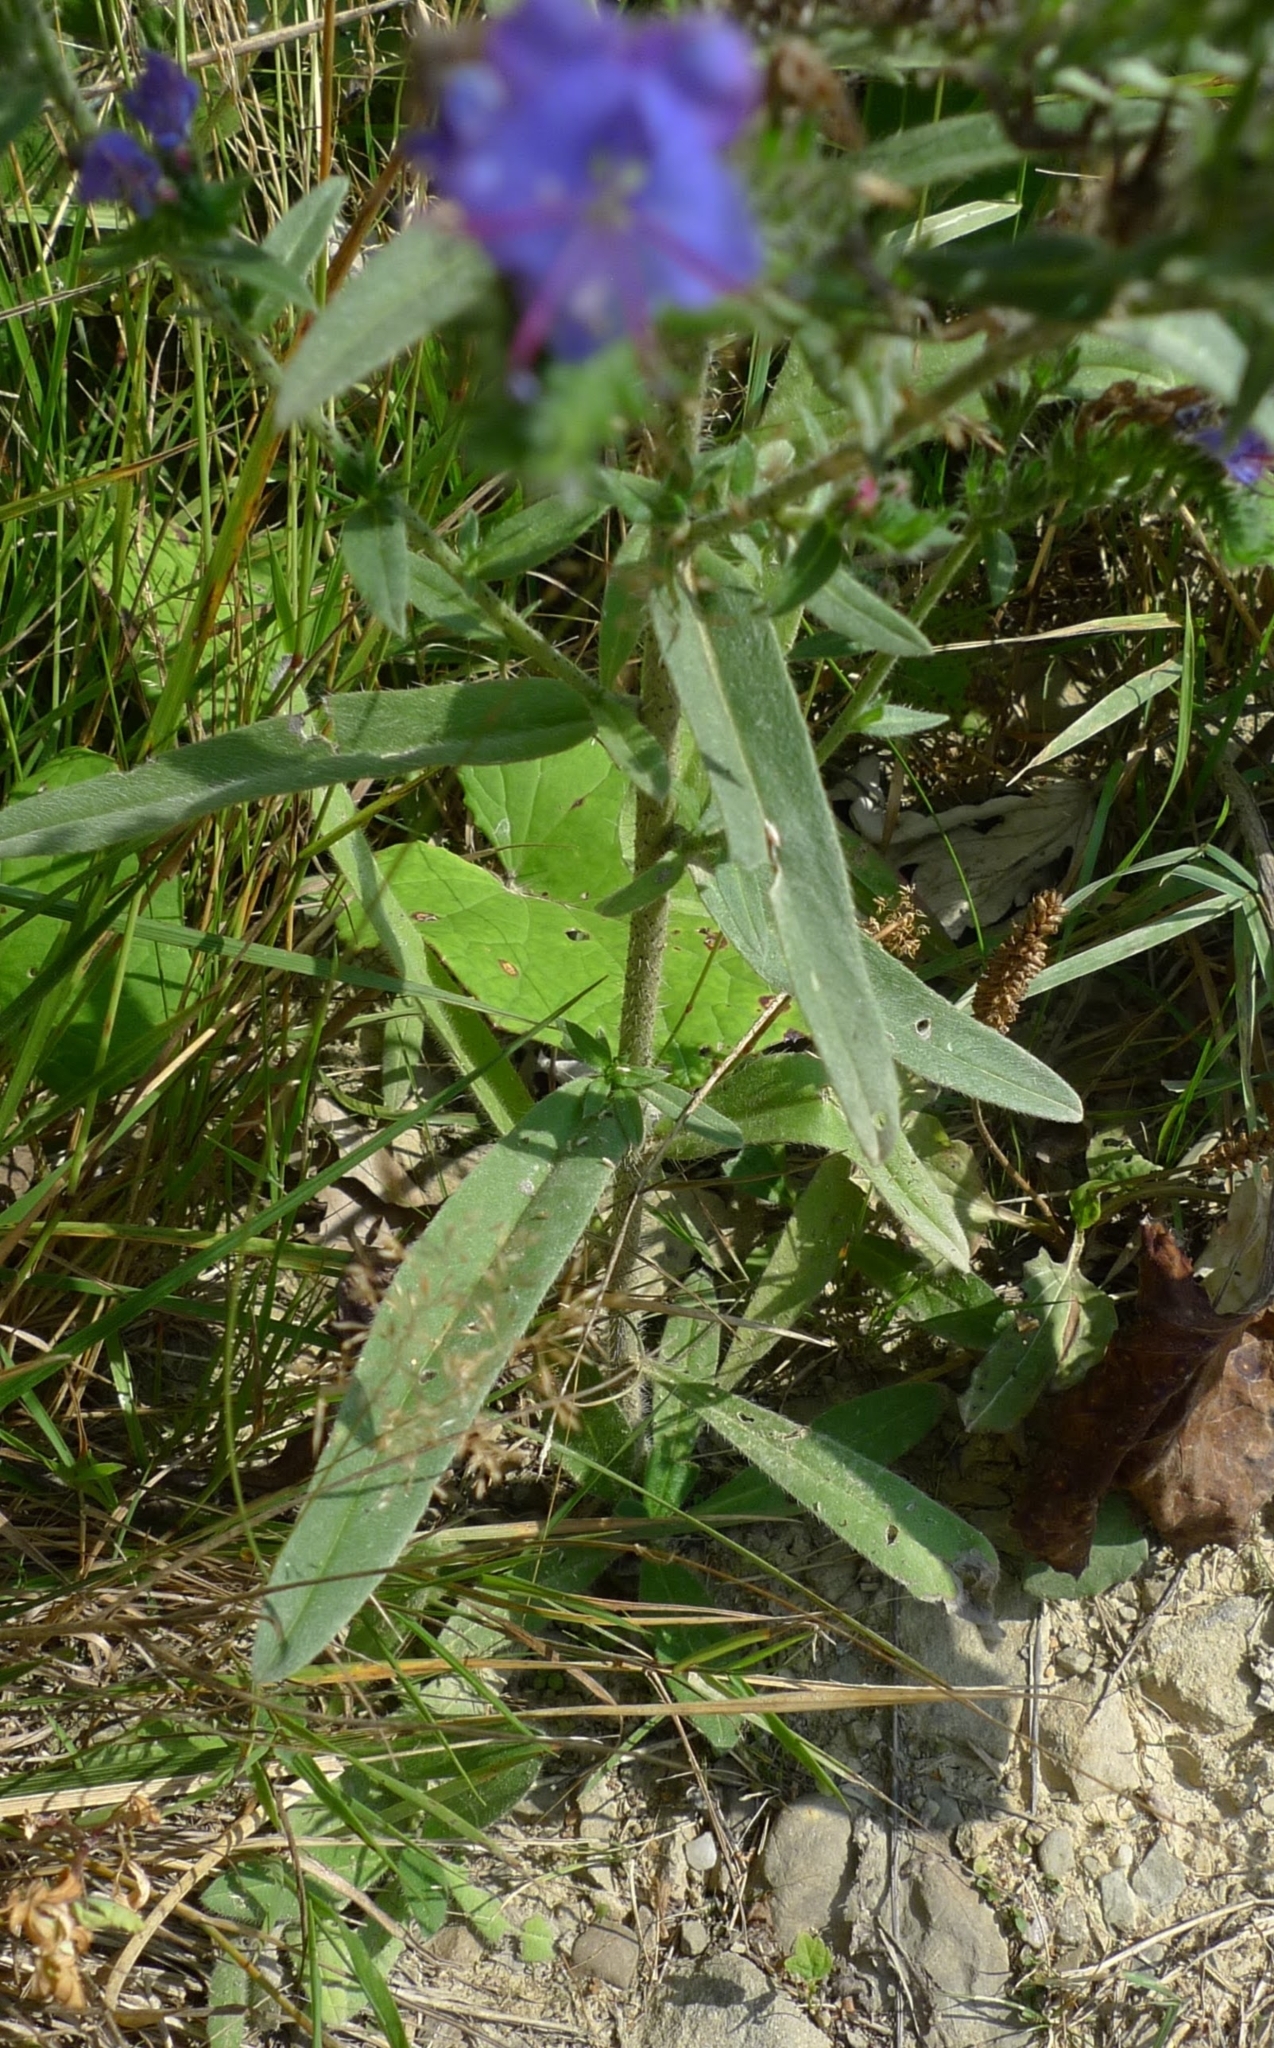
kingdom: Plantae
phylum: Tracheophyta
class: Magnoliopsida
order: Boraginales
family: Boraginaceae
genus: Echium
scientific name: Echium vulgare
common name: Common viper's bugloss
